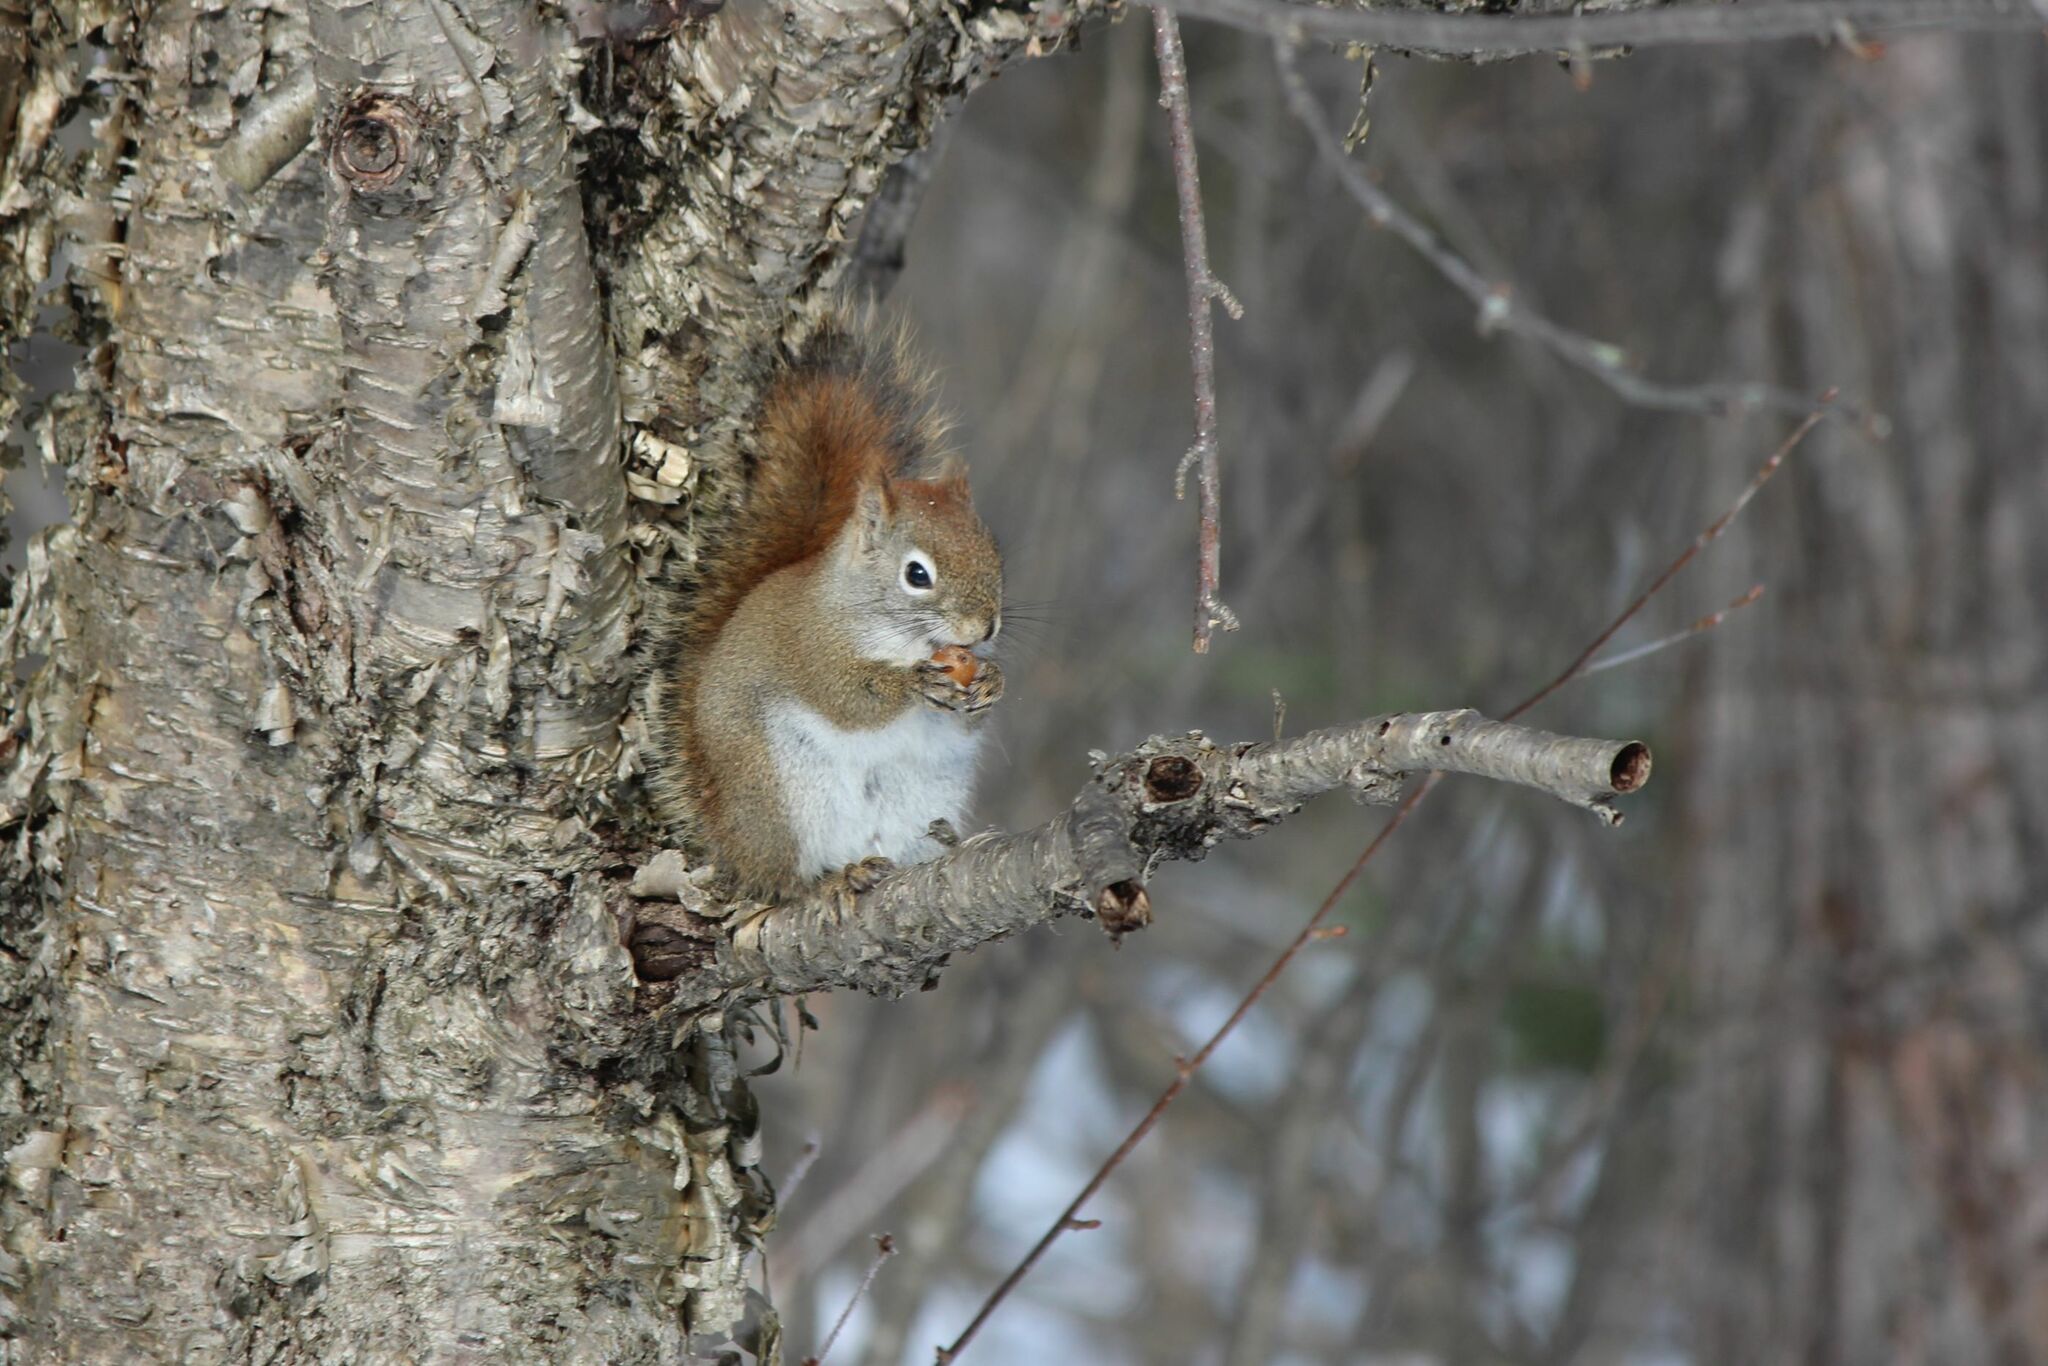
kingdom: Animalia
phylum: Chordata
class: Mammalia
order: Rodentia
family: Sciuridae
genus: Tamiasciurus
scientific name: Tamiasciurus hudsonicus
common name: Red squirrel
